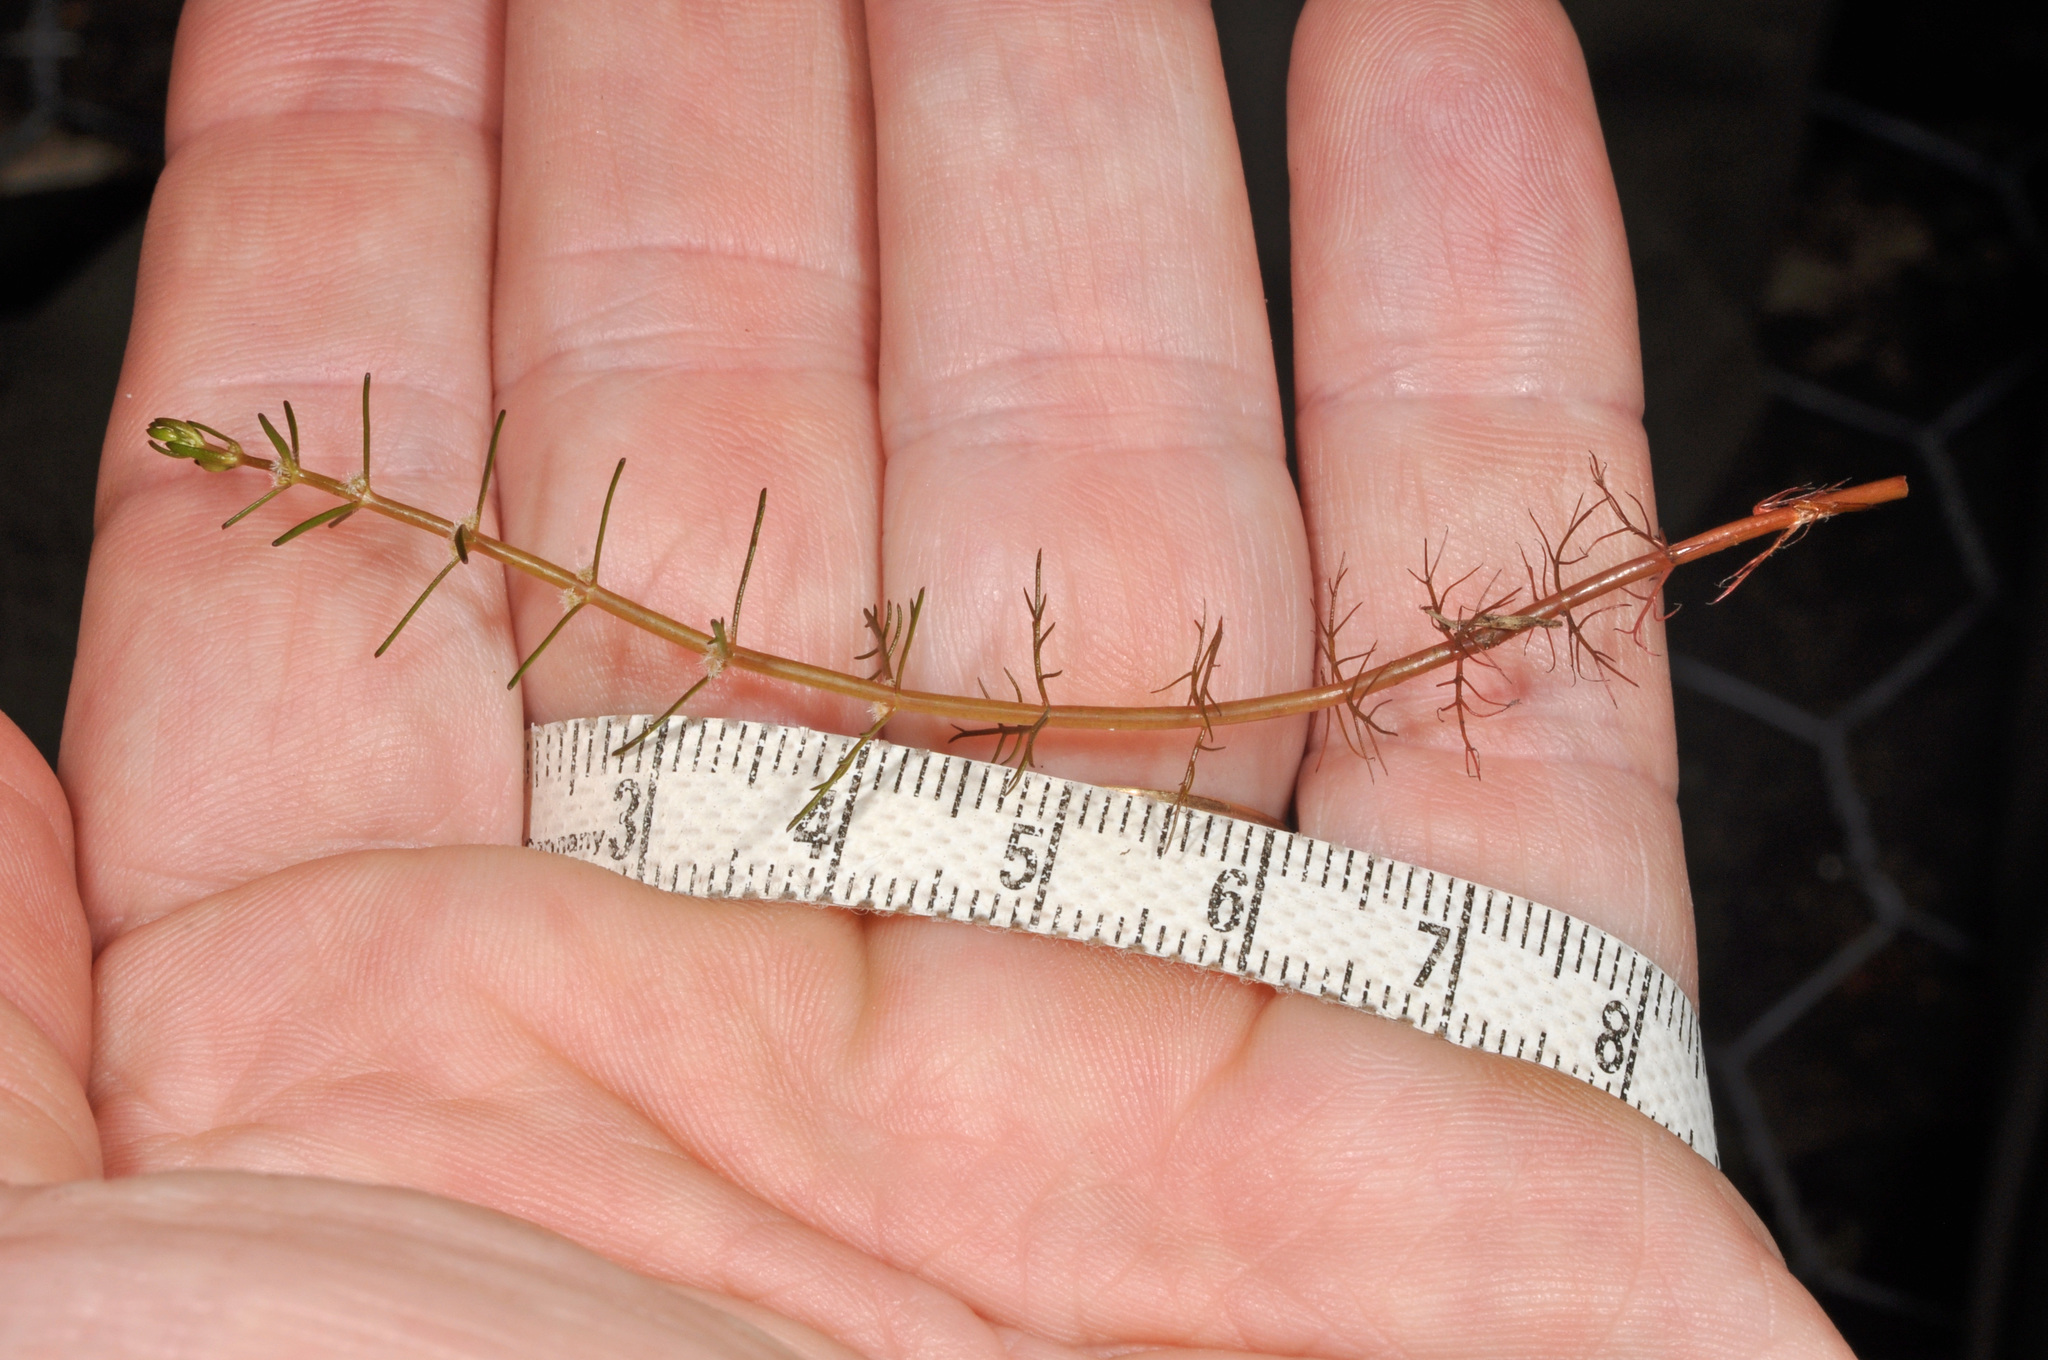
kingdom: Plantae
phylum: Tracheophyta
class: Magnoliopsida
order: Saxifragales
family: Haloragaceae
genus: Myriophyllum
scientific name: Myriophyllum propinquum
